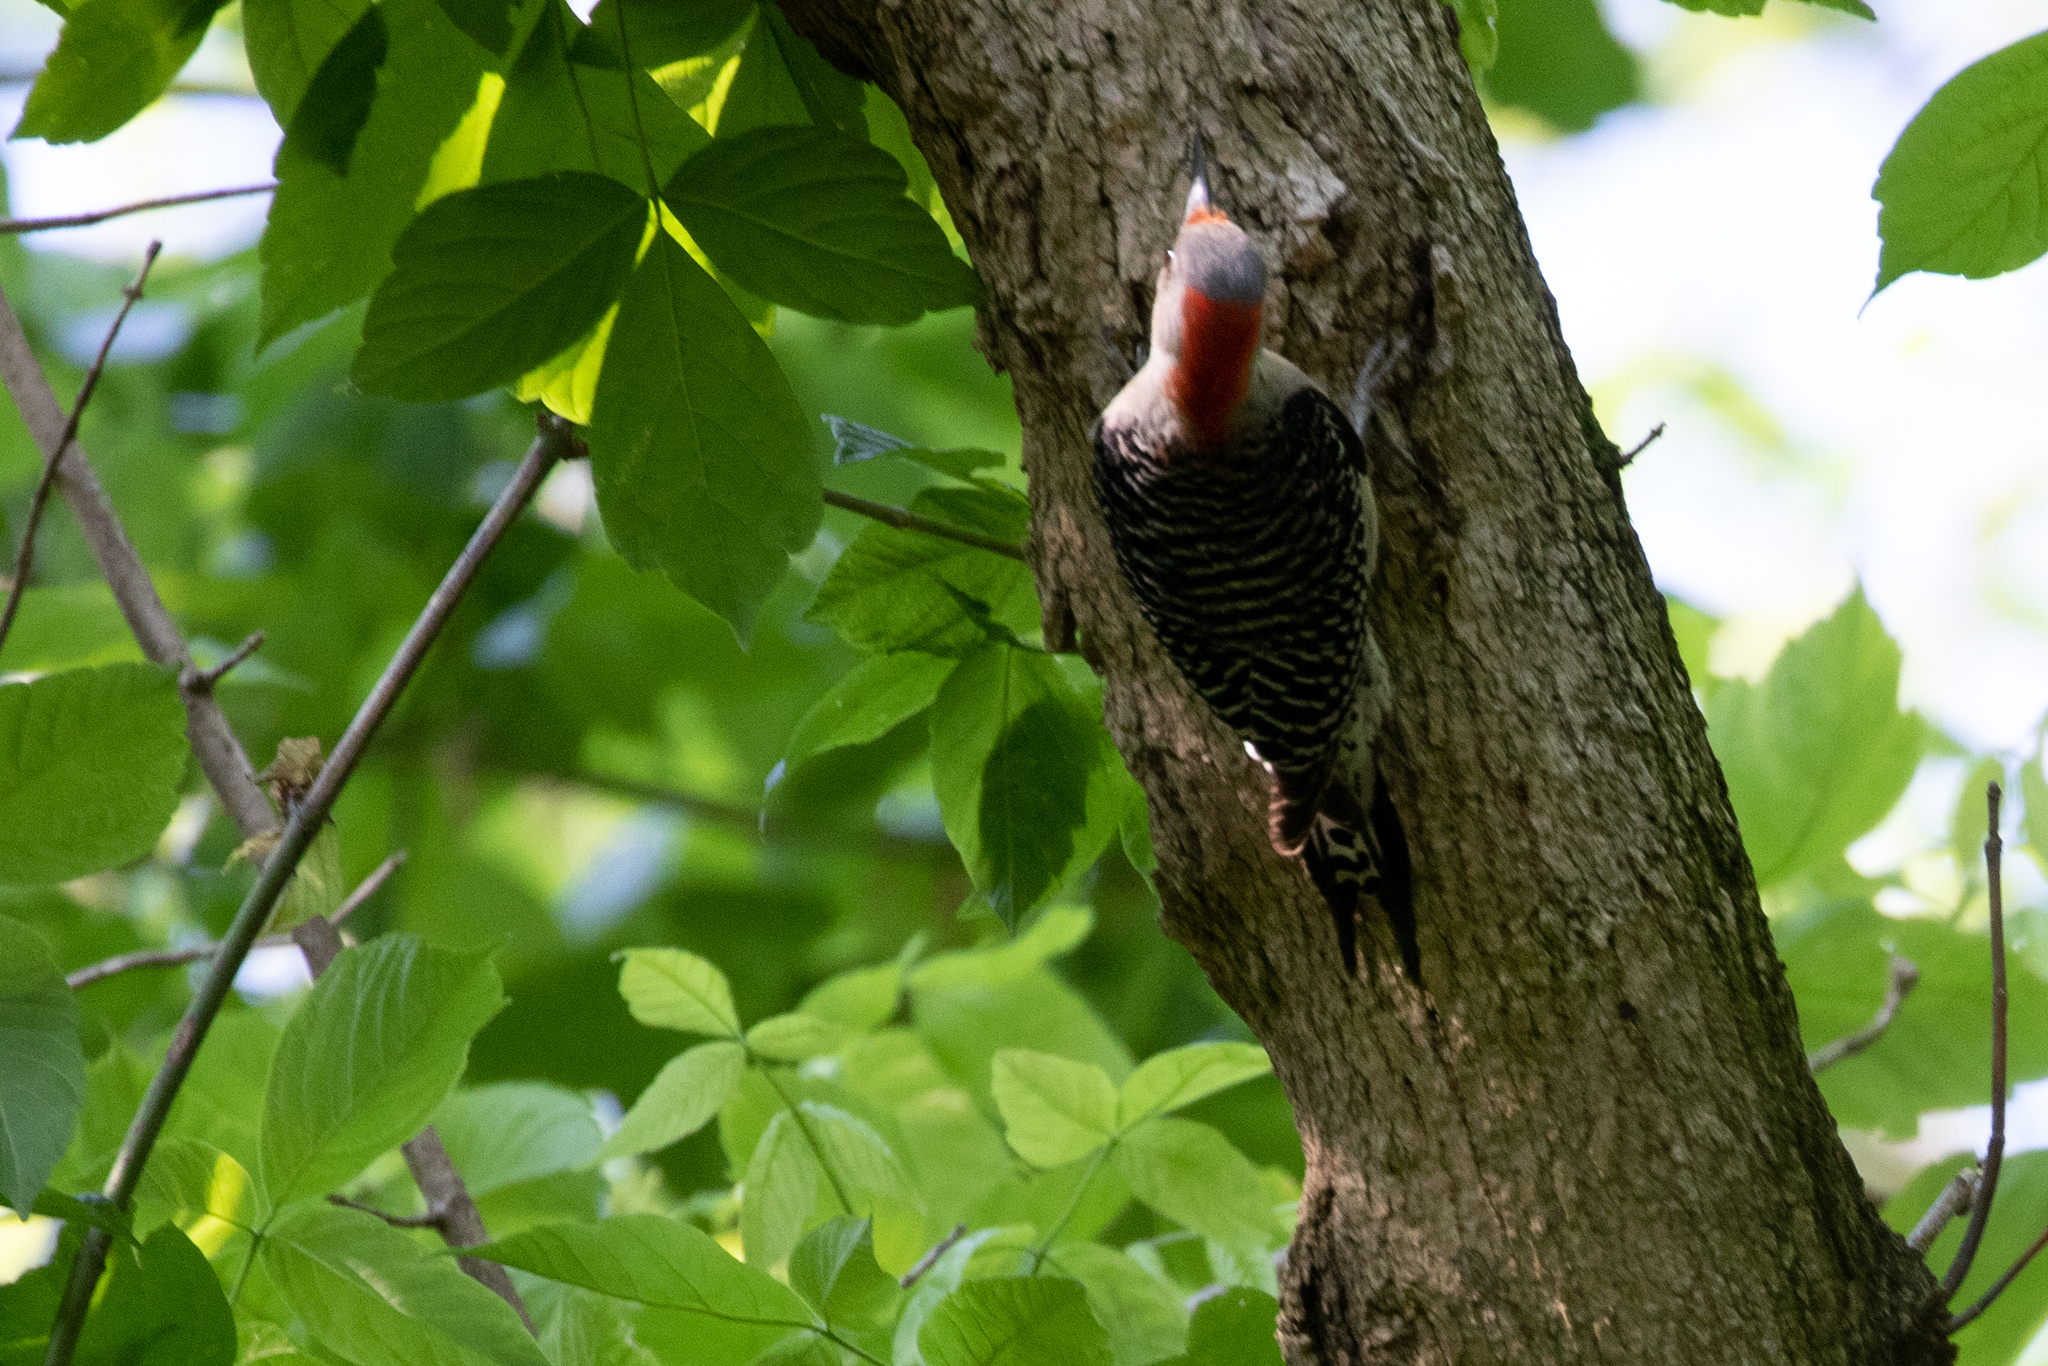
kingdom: Animalia
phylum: Chordata
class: Aves
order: Piciformes
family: Picidae
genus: Melanerpes
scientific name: Melanerpes carolinus
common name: Red-bellied woodpecker
